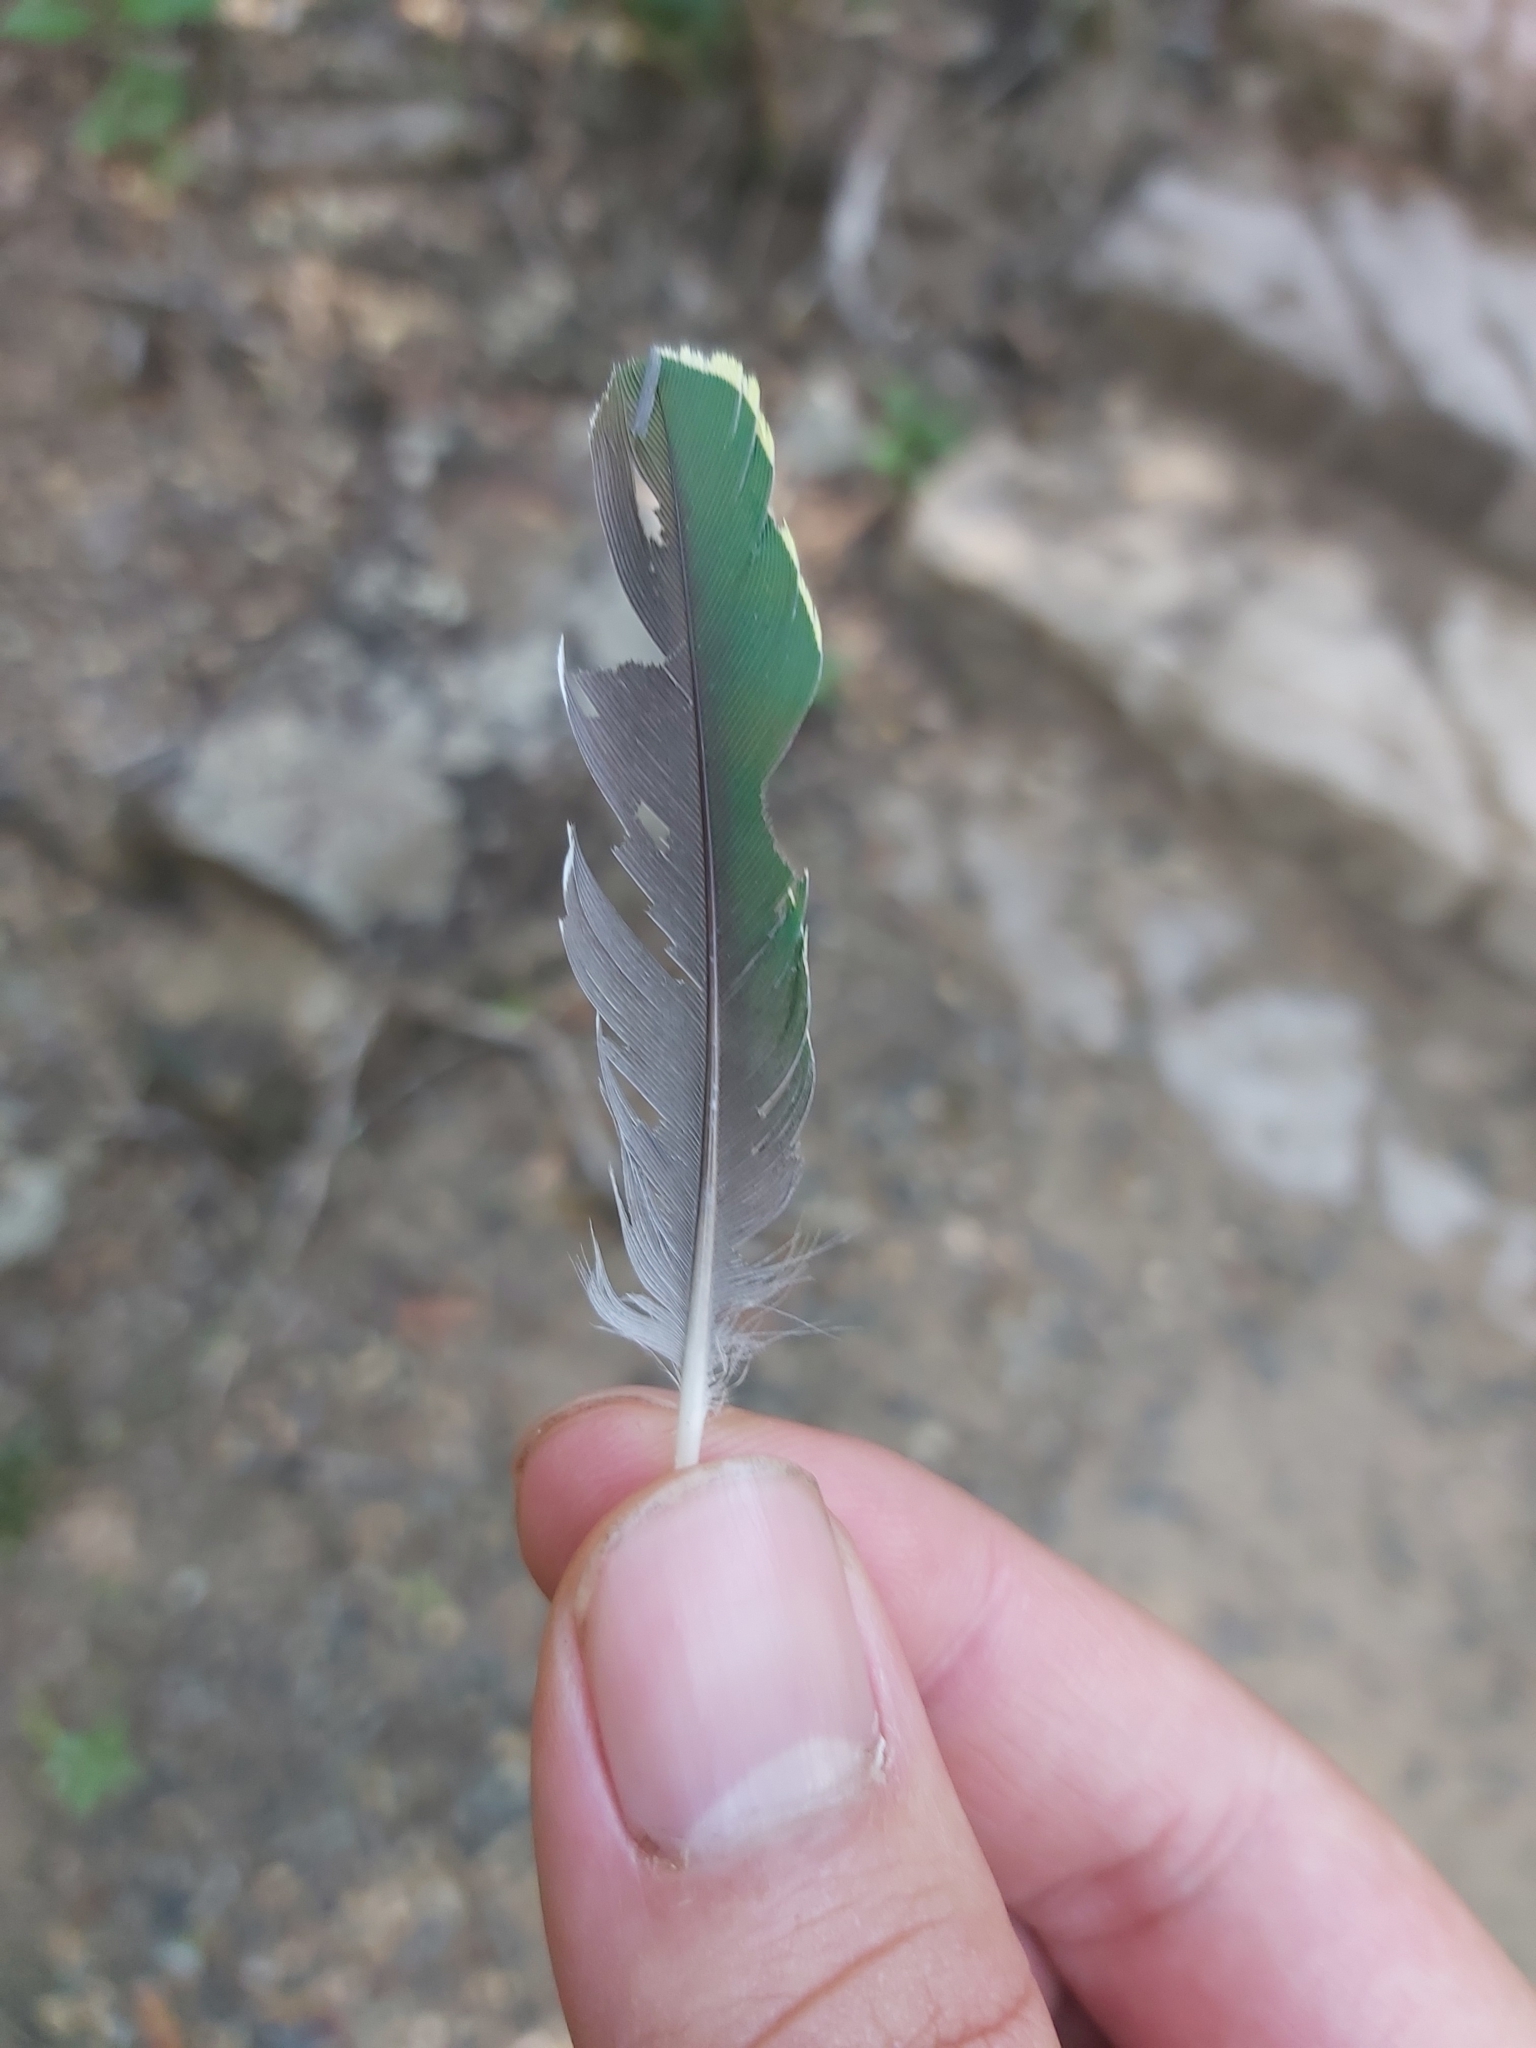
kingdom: Animalia
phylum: Chordata
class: Aves
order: Columbiformes
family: Columbidae
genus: Ptilinopus
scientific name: Ptilinopus superbus
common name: Superb fruit dove
